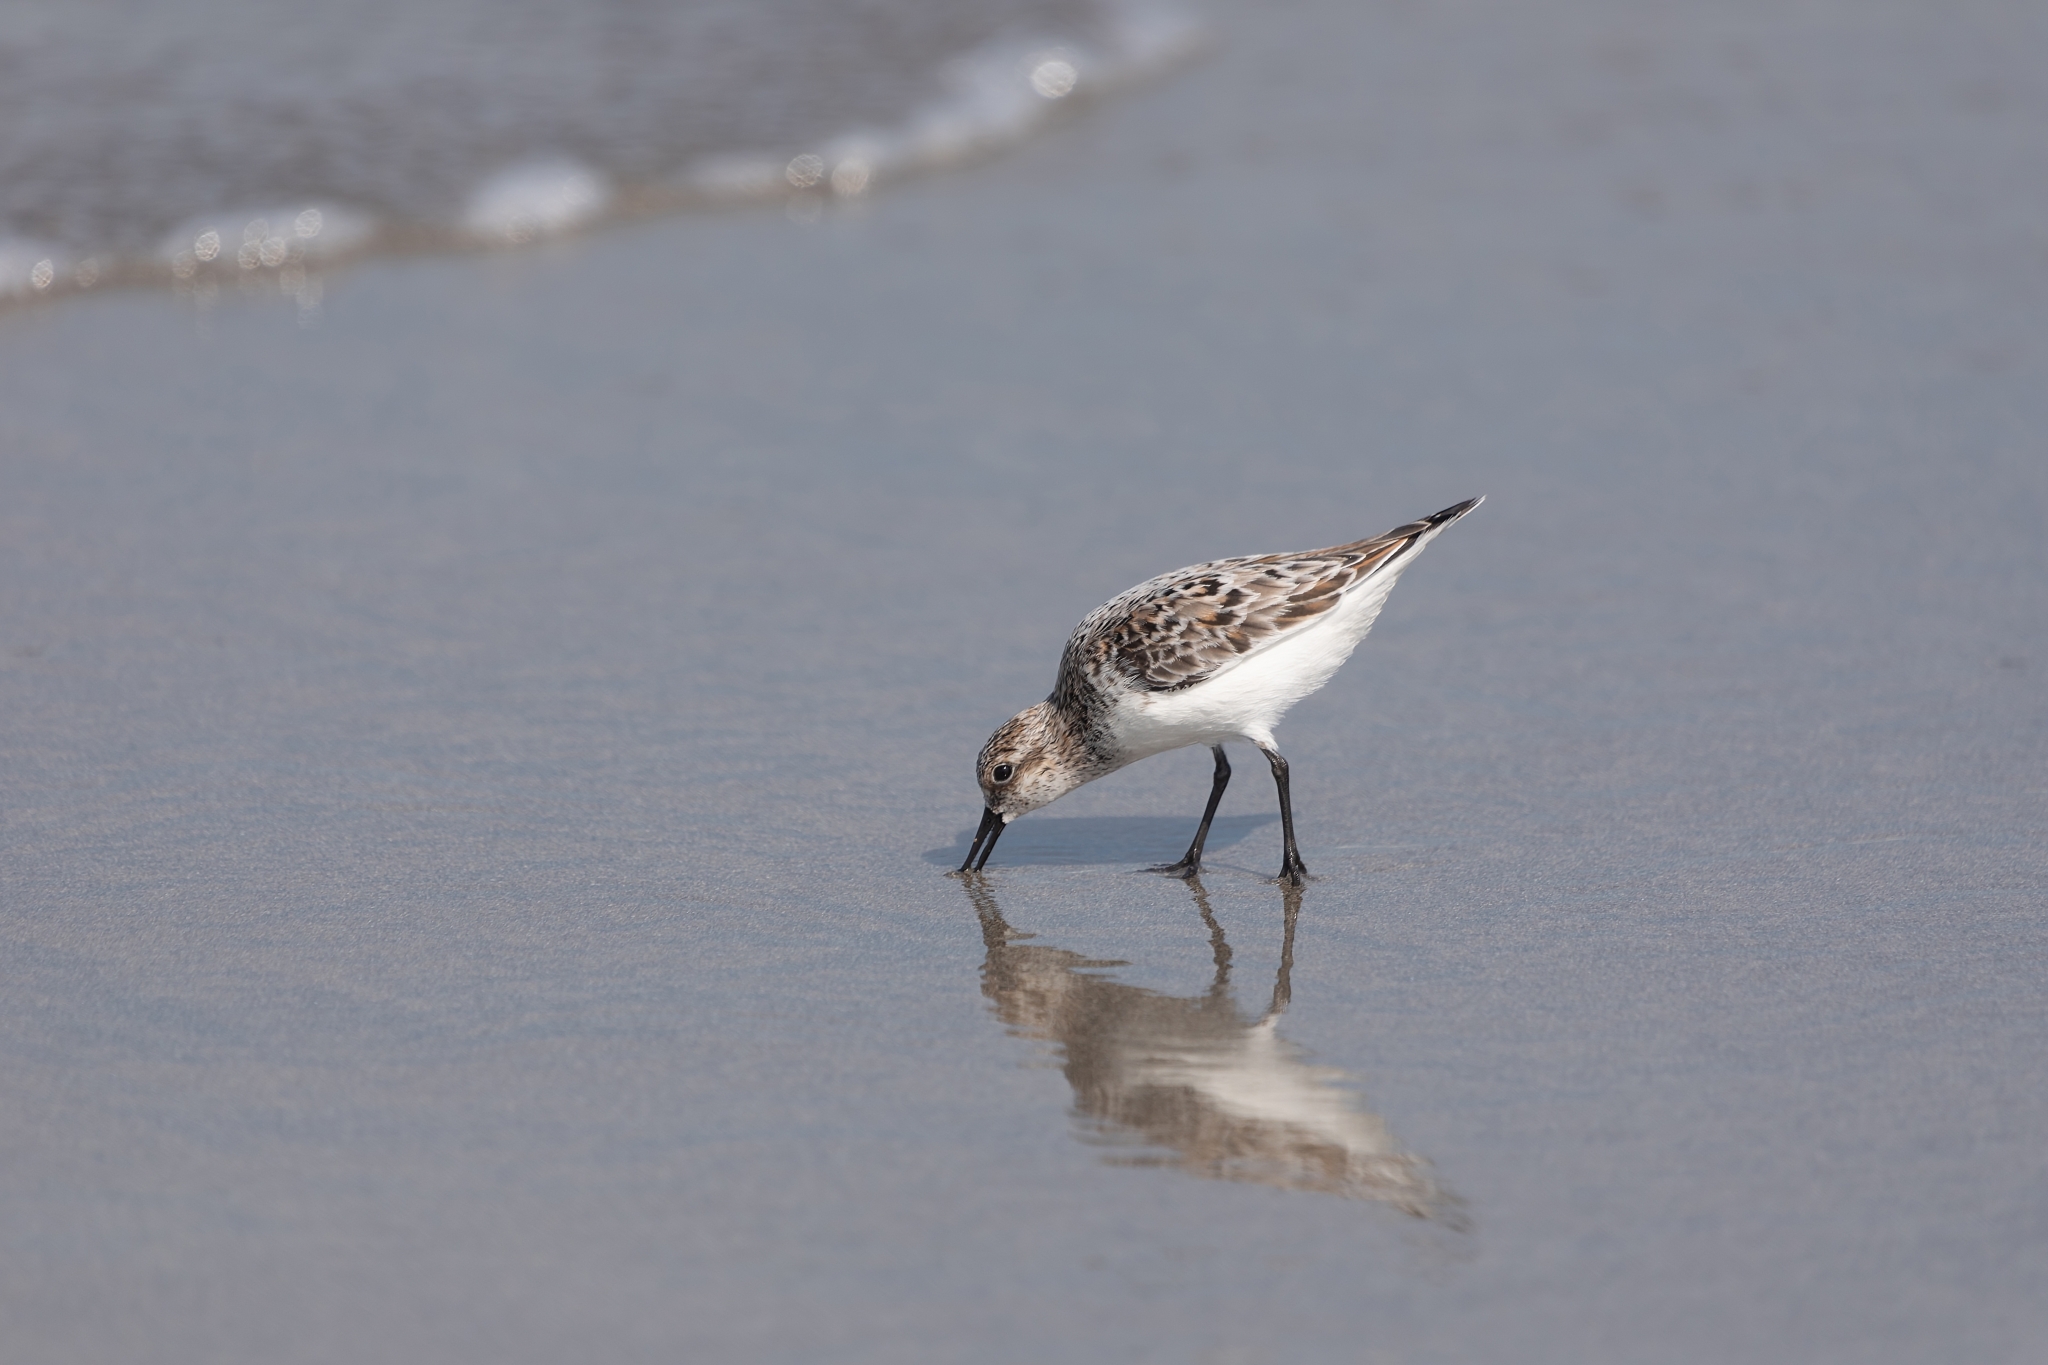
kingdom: Animalia
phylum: Chordata
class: Aves
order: Charadriiformes
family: Scolopacidae
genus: Calidris
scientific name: Calidris alba
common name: Sanderling
